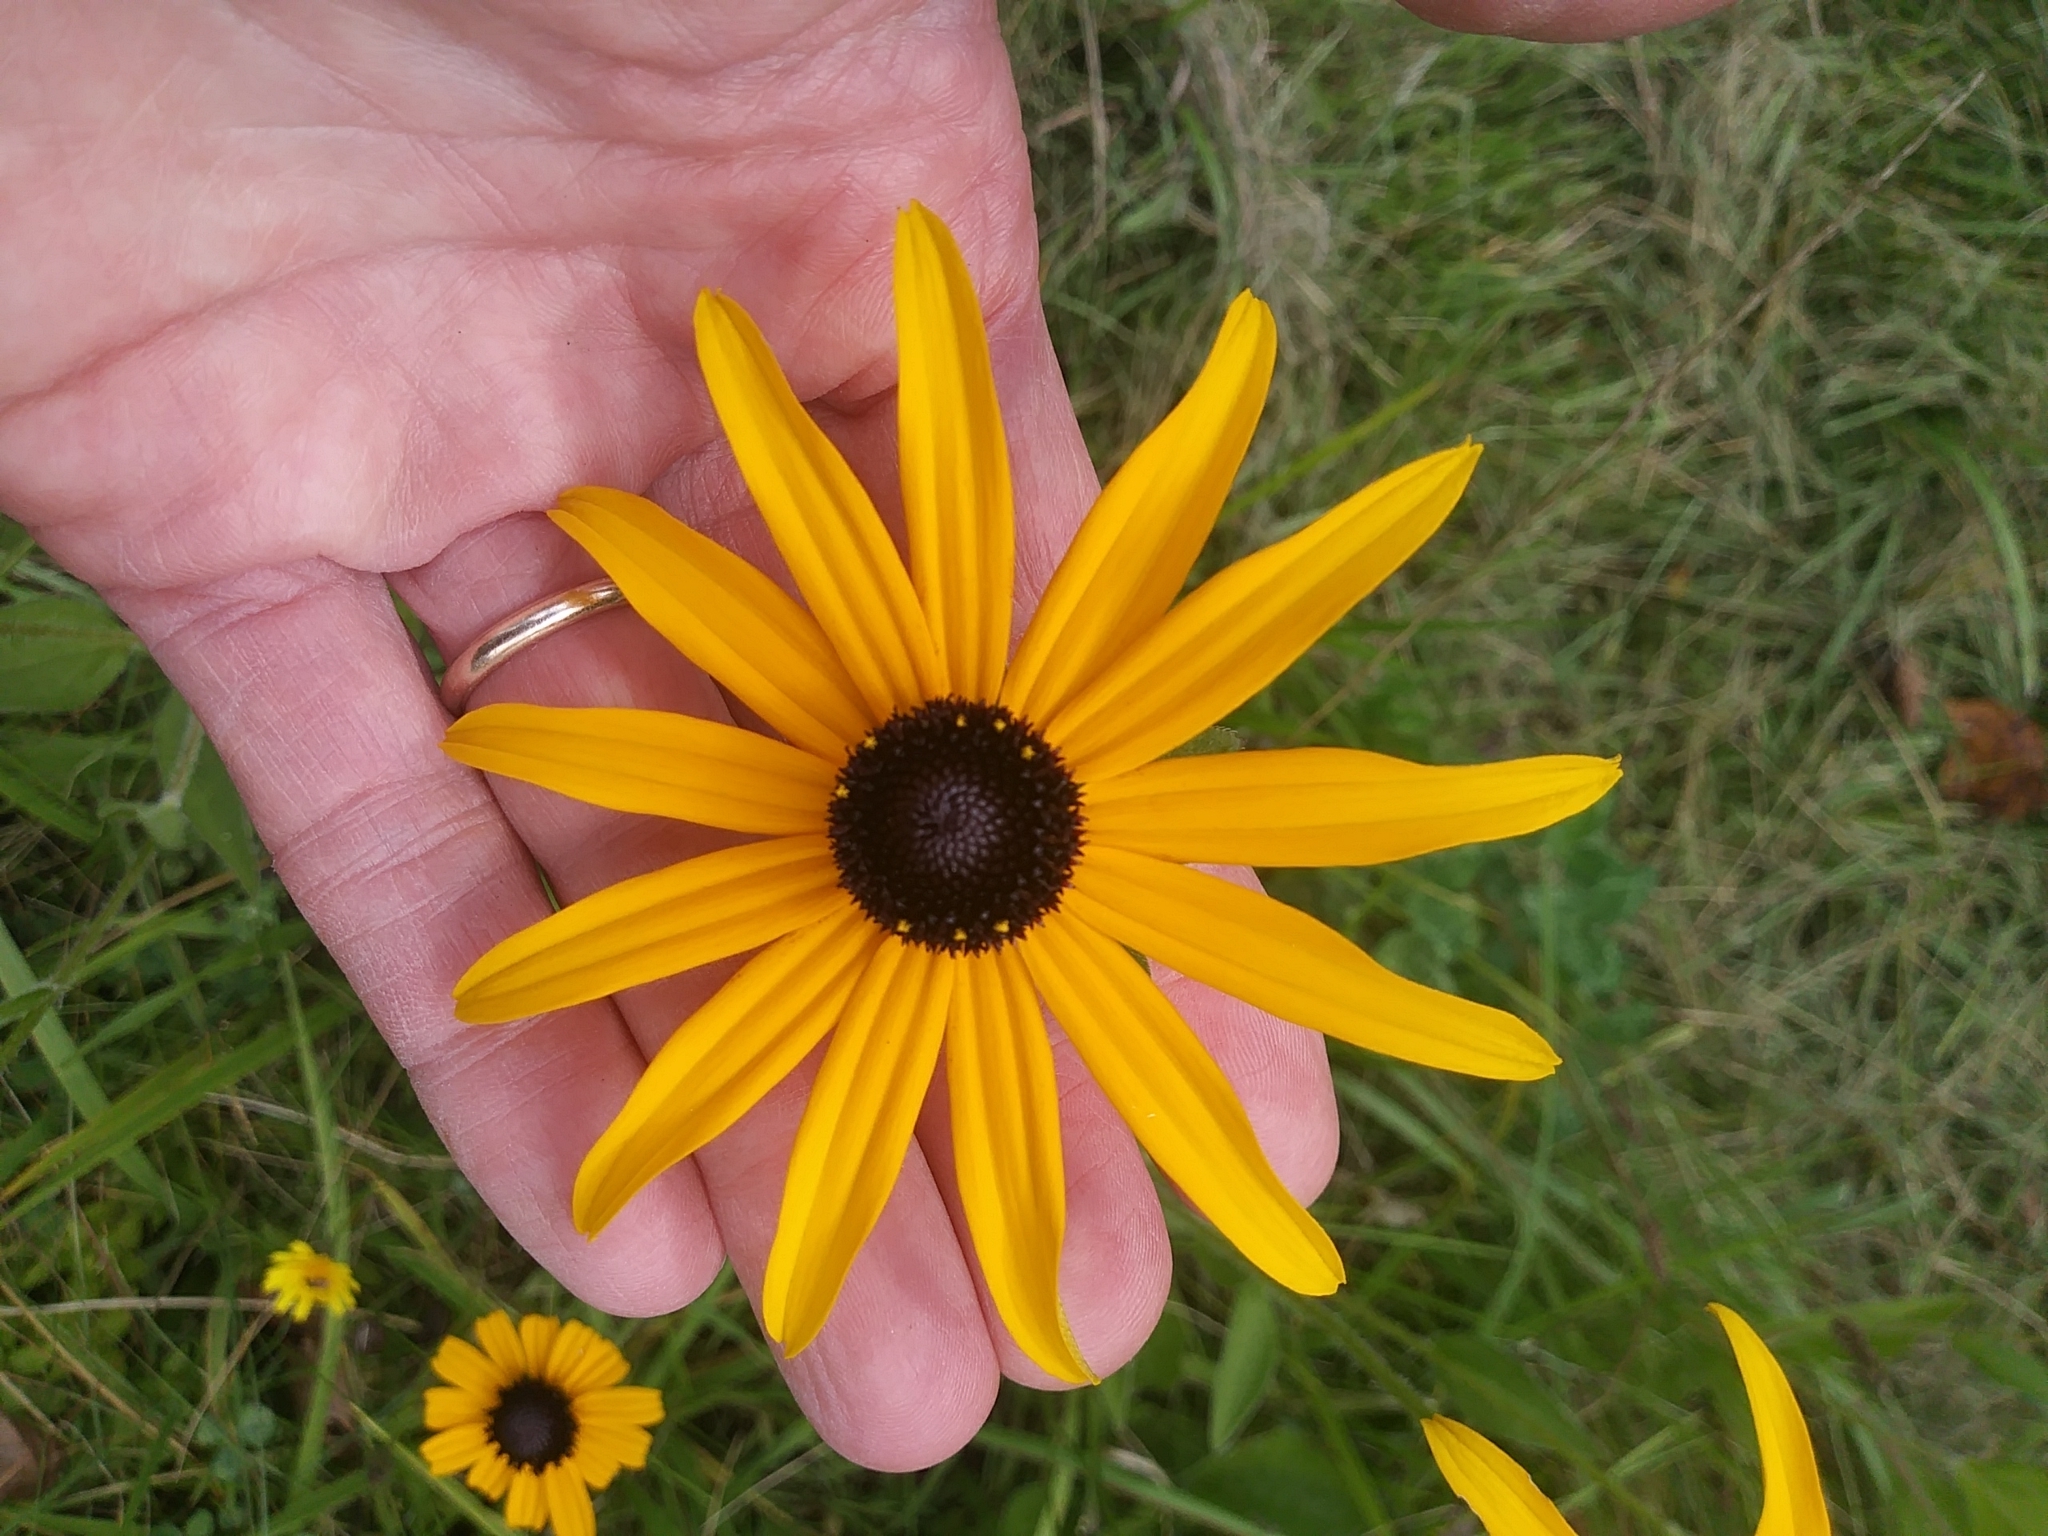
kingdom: Plantae
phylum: Tracheophyta
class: Magnoliopsida
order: Asterales
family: Asteraceae
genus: Rudbeckia
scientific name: Rudbeckia hirta
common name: Black-eyed-susan
